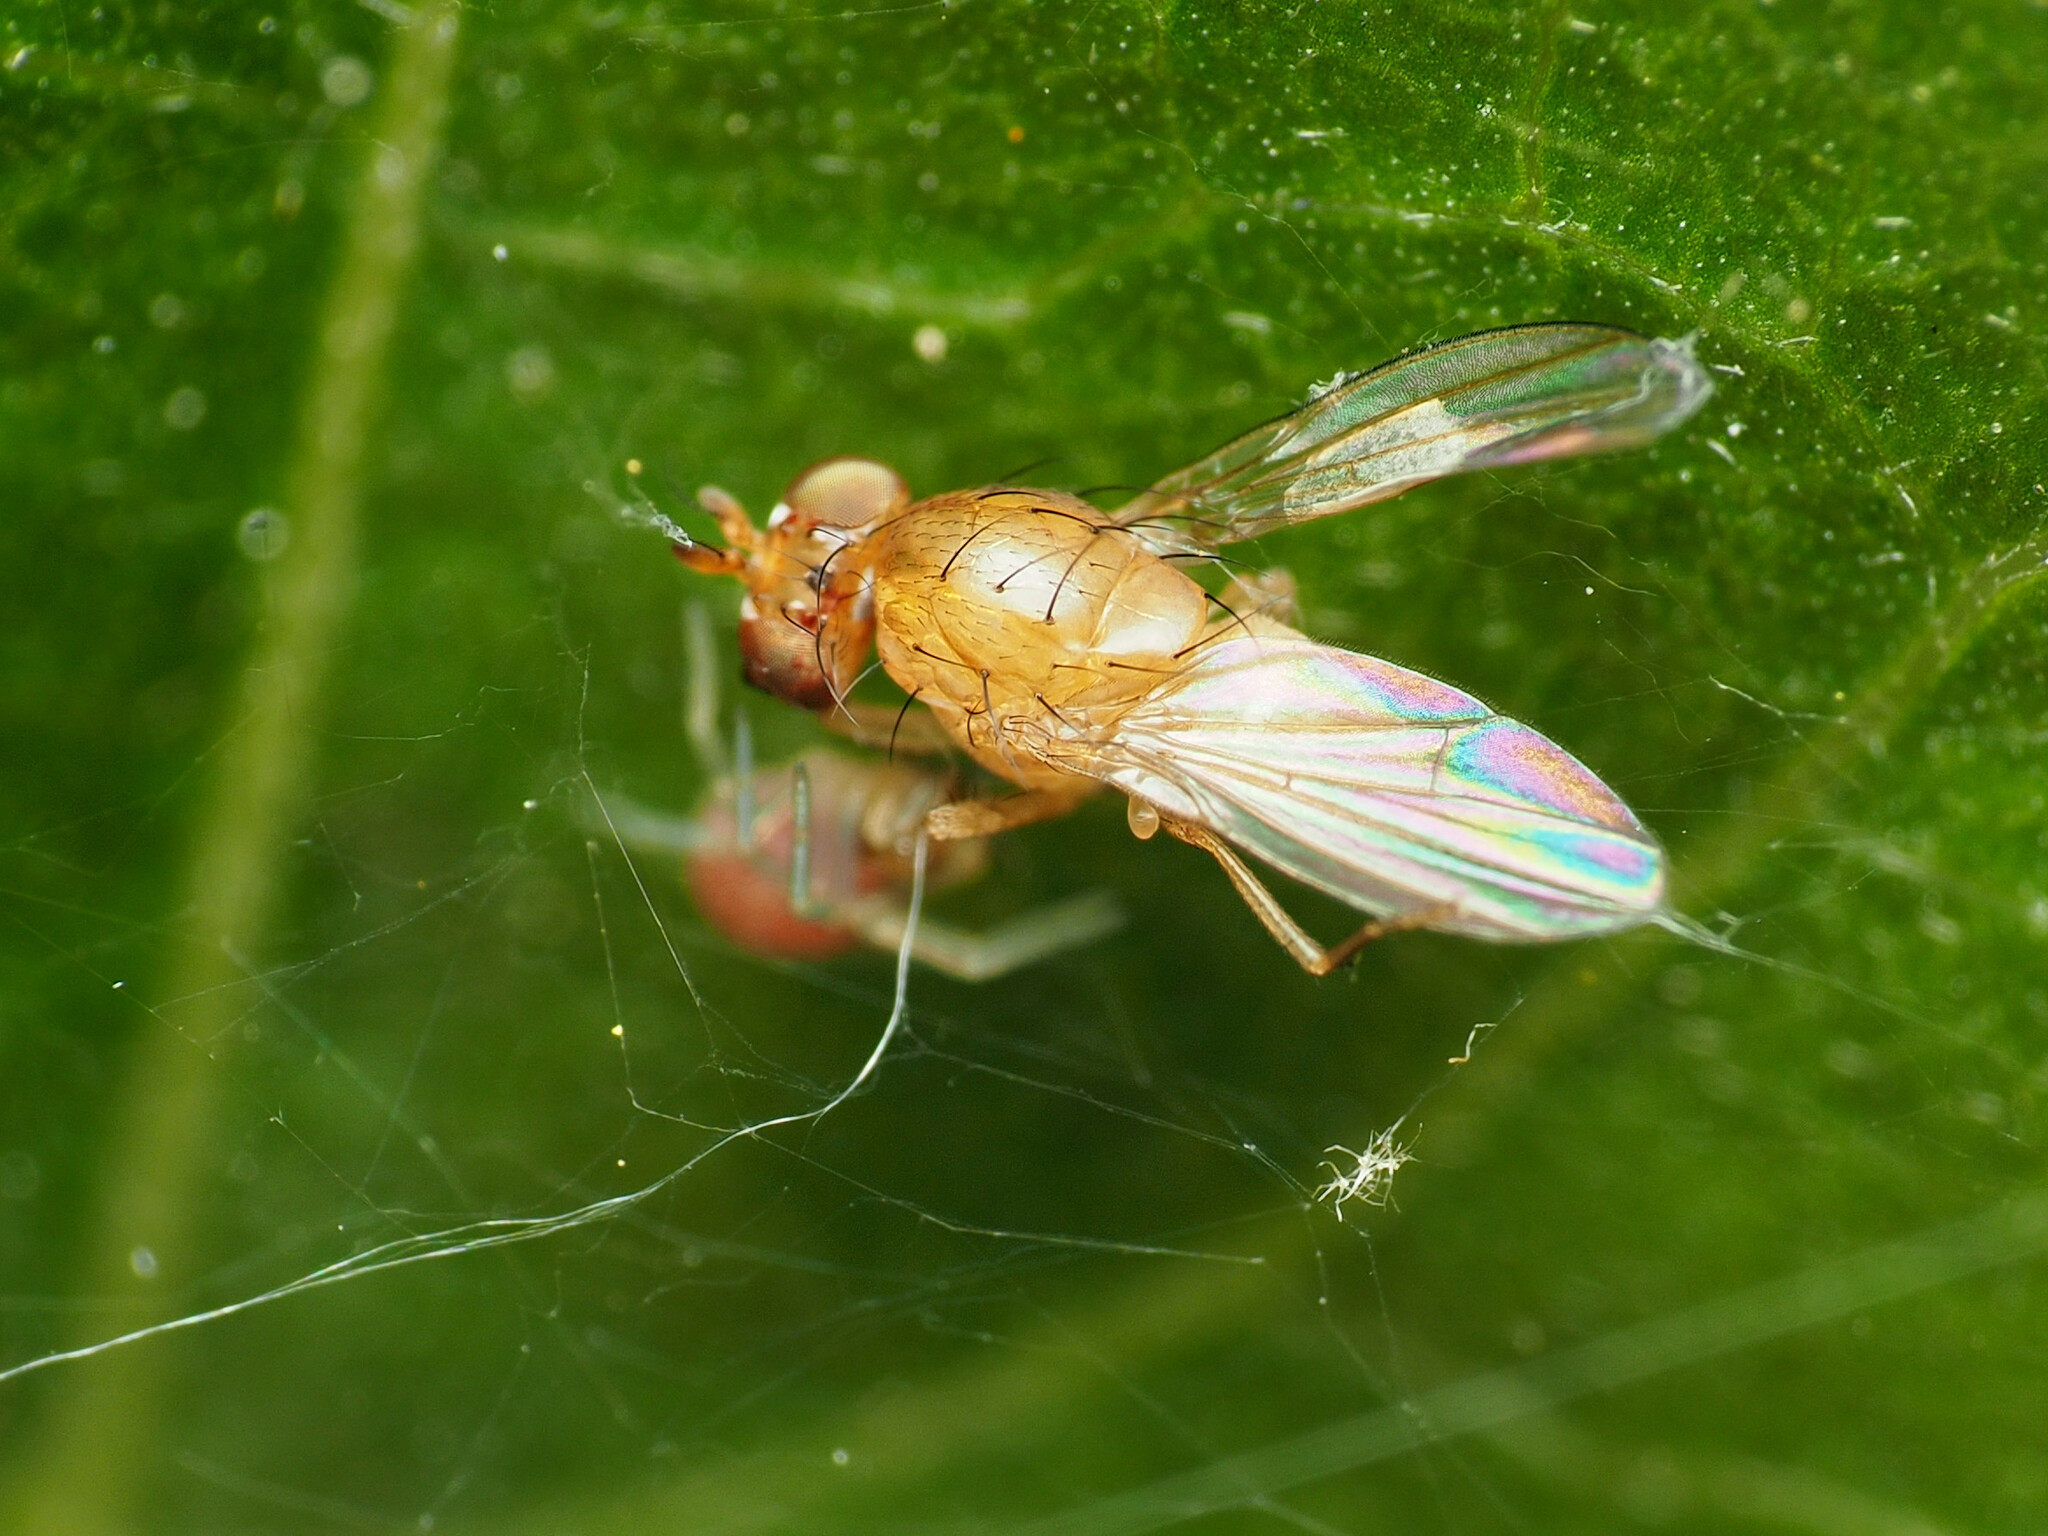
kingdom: Animalia
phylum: Arthropoda
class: Insecta
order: Diptera
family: Lauxaniidae
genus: Homoneura
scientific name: Homoneura unguiculata
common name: Beach fly
